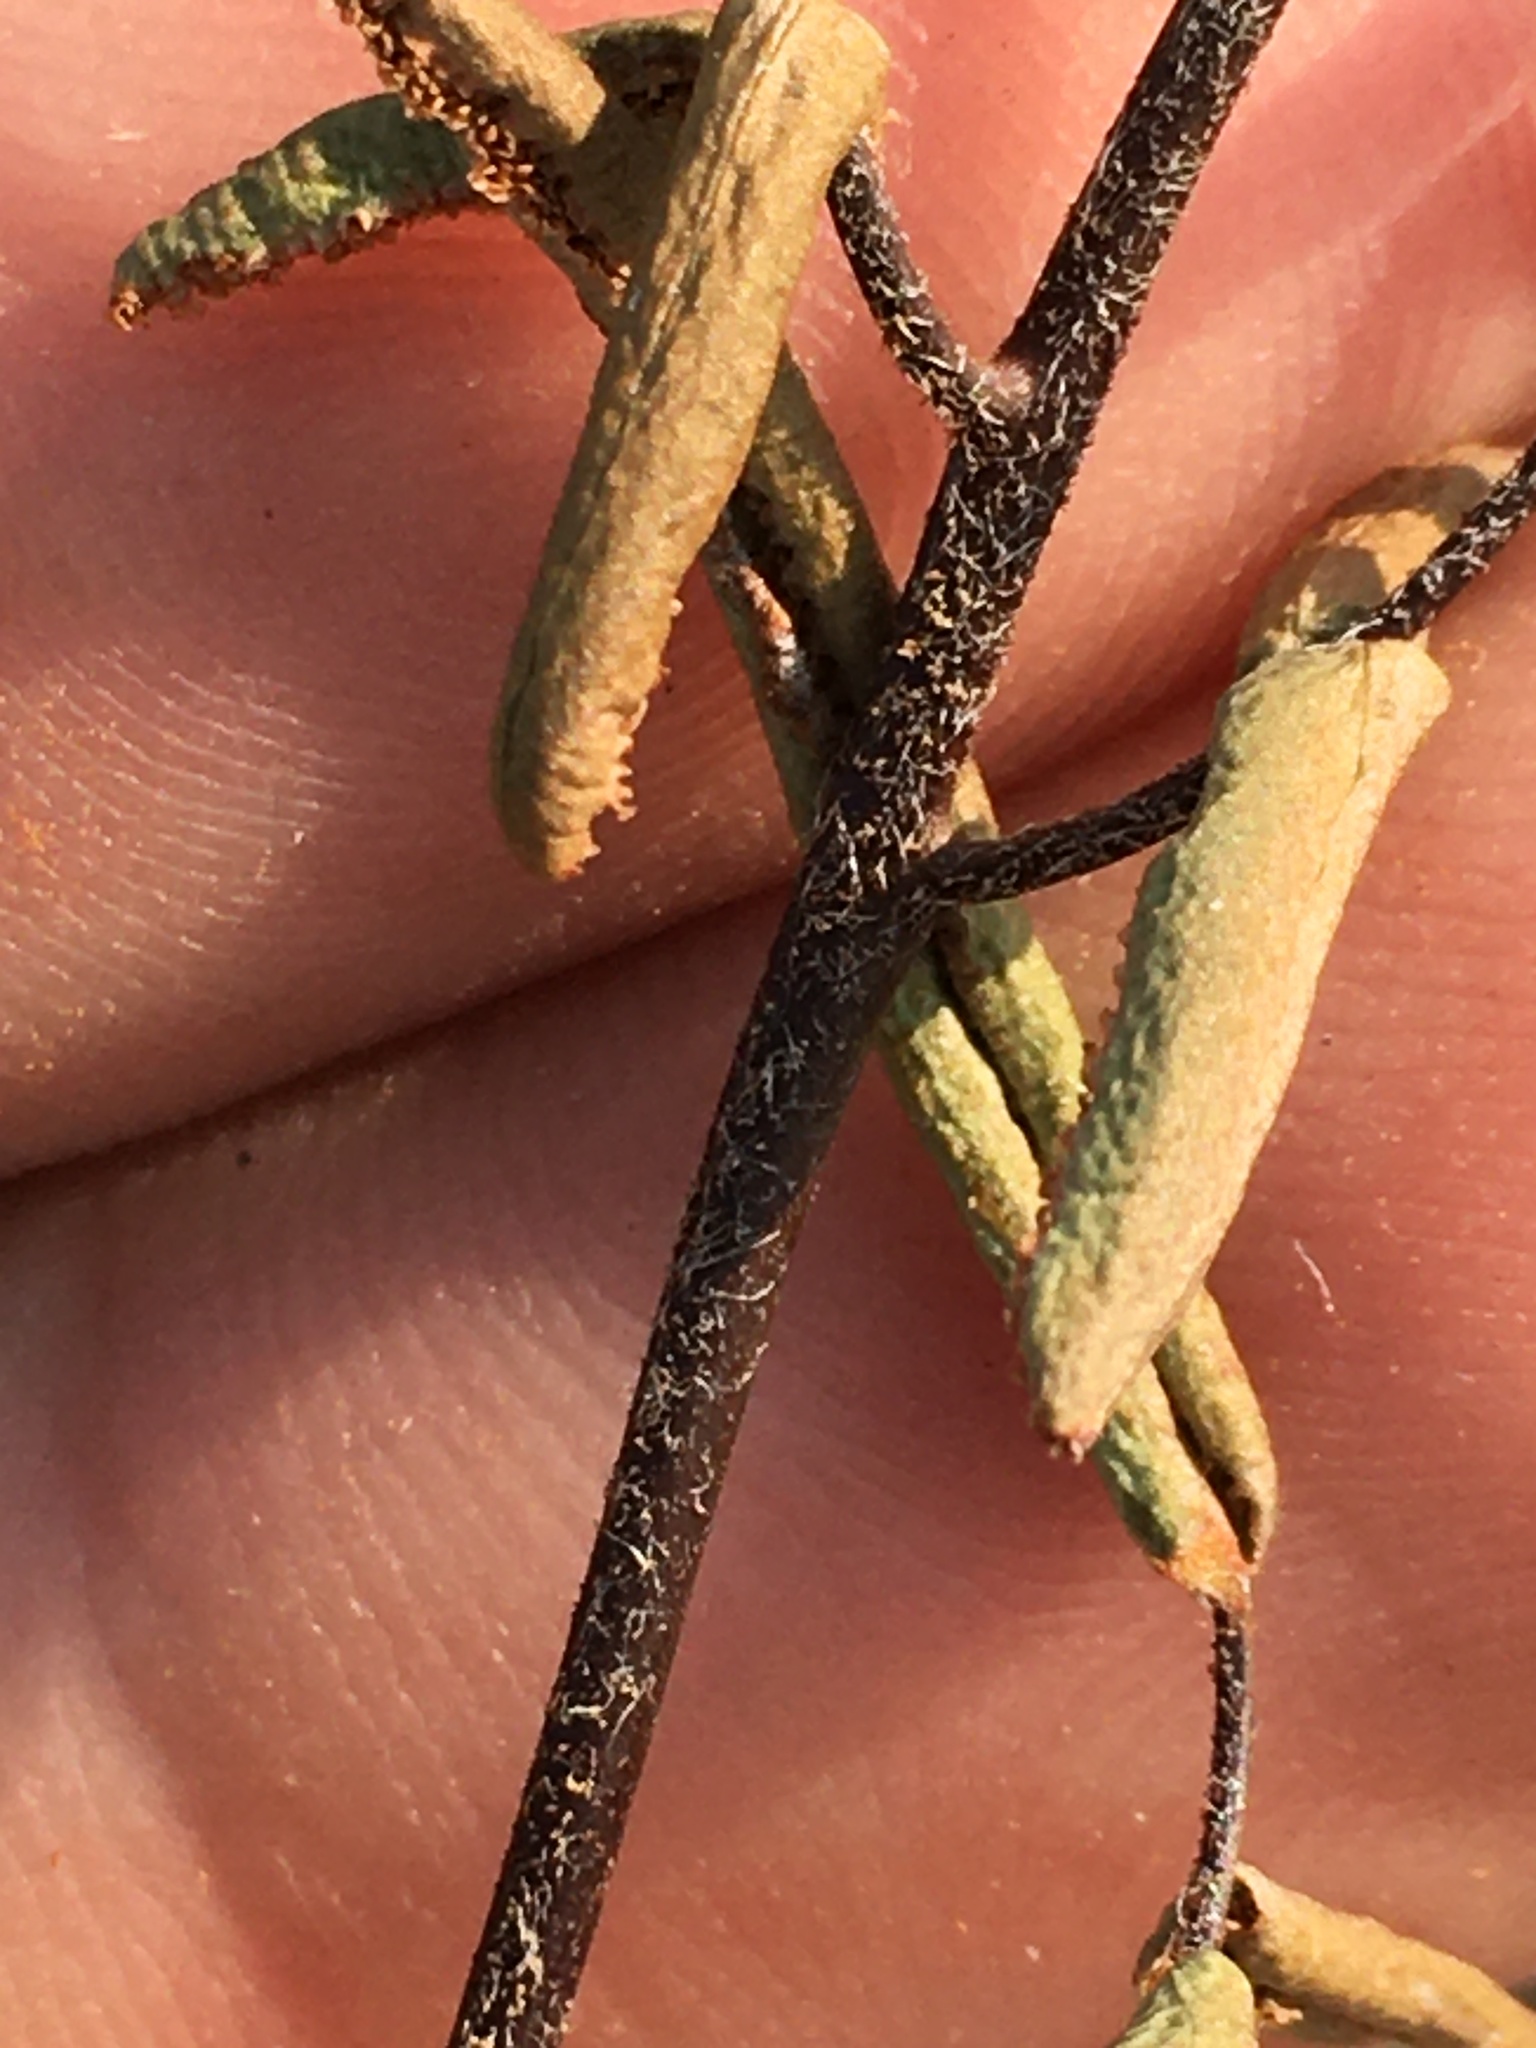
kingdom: Plantae
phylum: Tracheophyta
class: Polypodiopsida
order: Polypodiales
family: Pteridaceae
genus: Pellaea
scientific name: Pellaea atropurpurea
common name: Hairy cliffbrake
